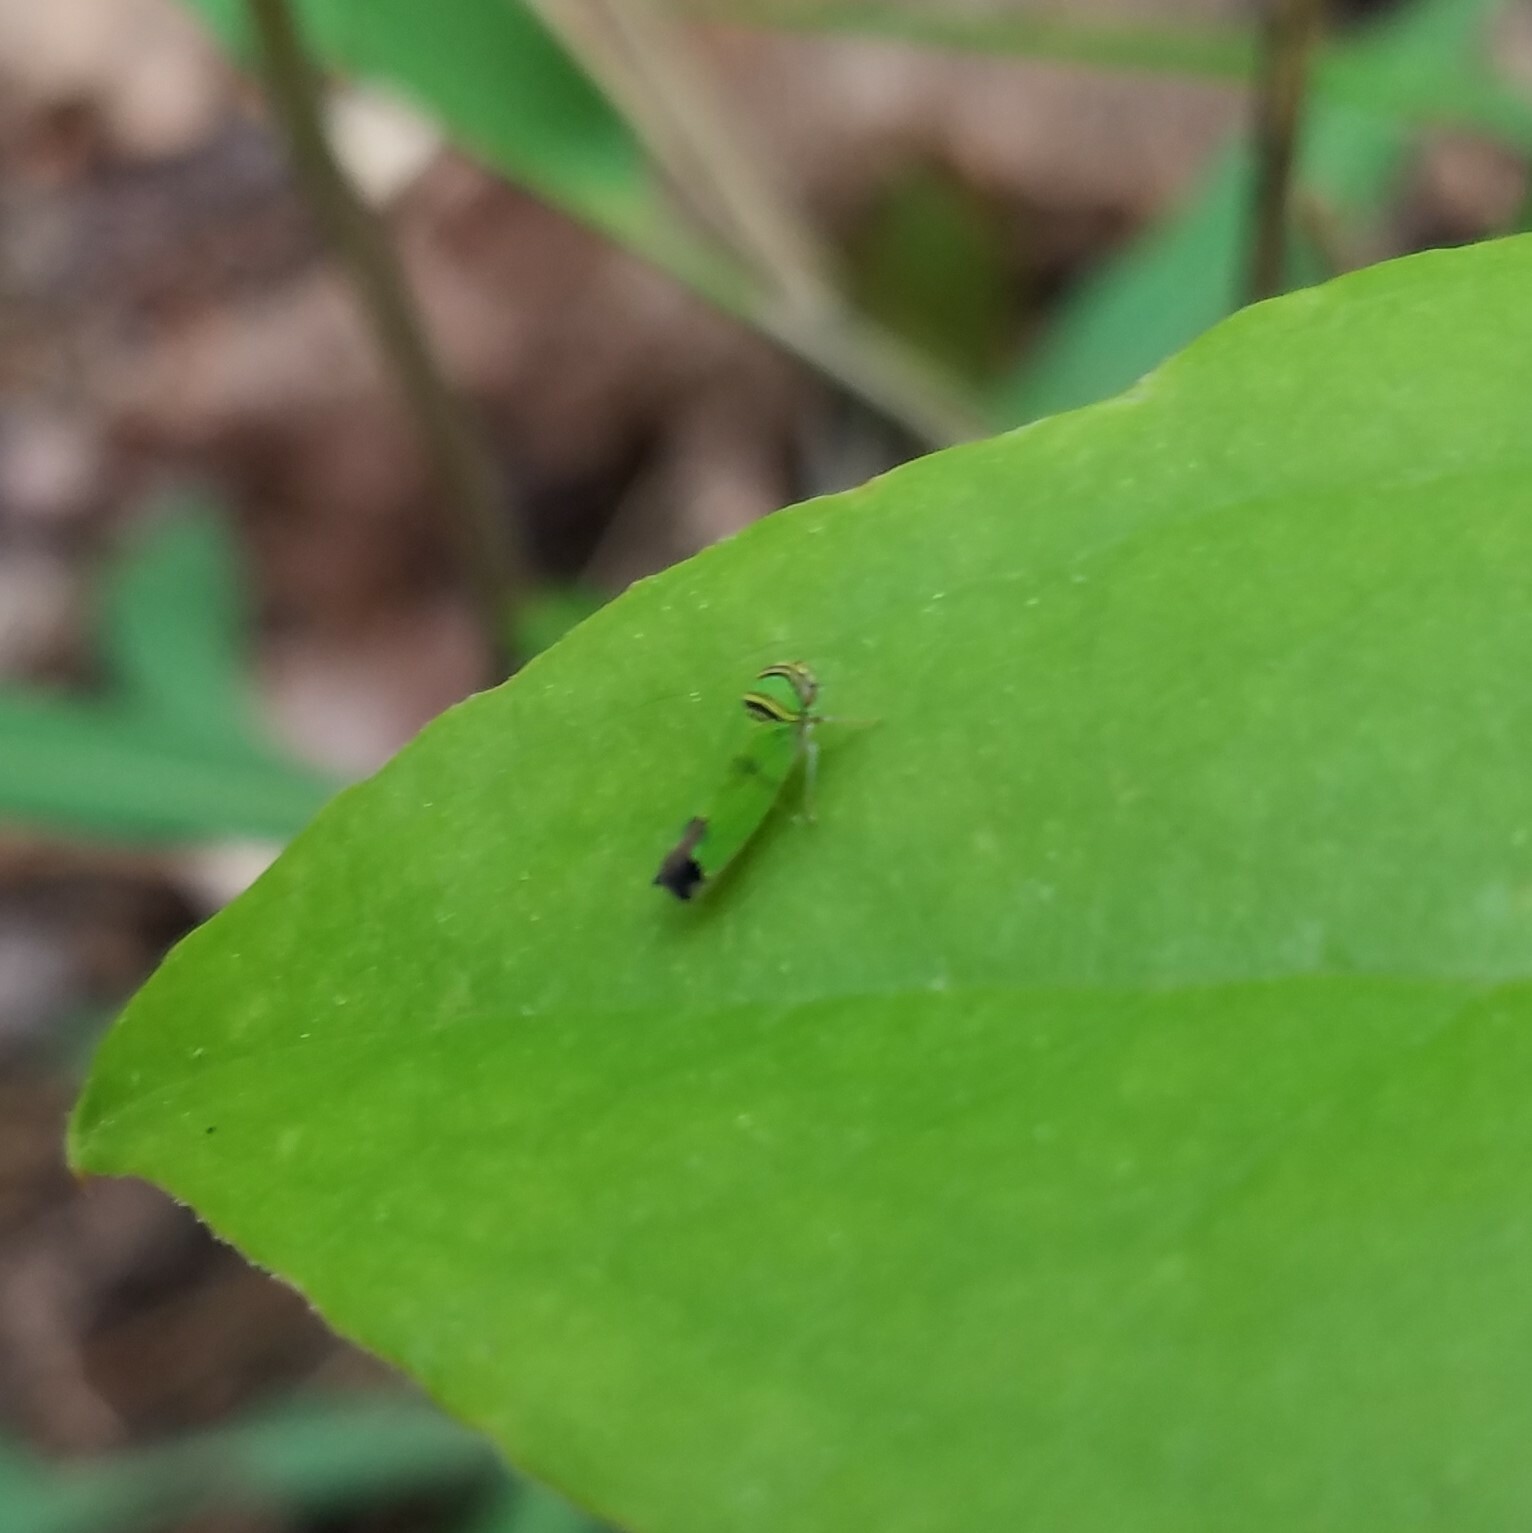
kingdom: Animalia
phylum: Arthropoda
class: Insecta
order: Hemiptera
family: Cicadellidae
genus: Tylozygus
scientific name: Tylozygus geometricus
